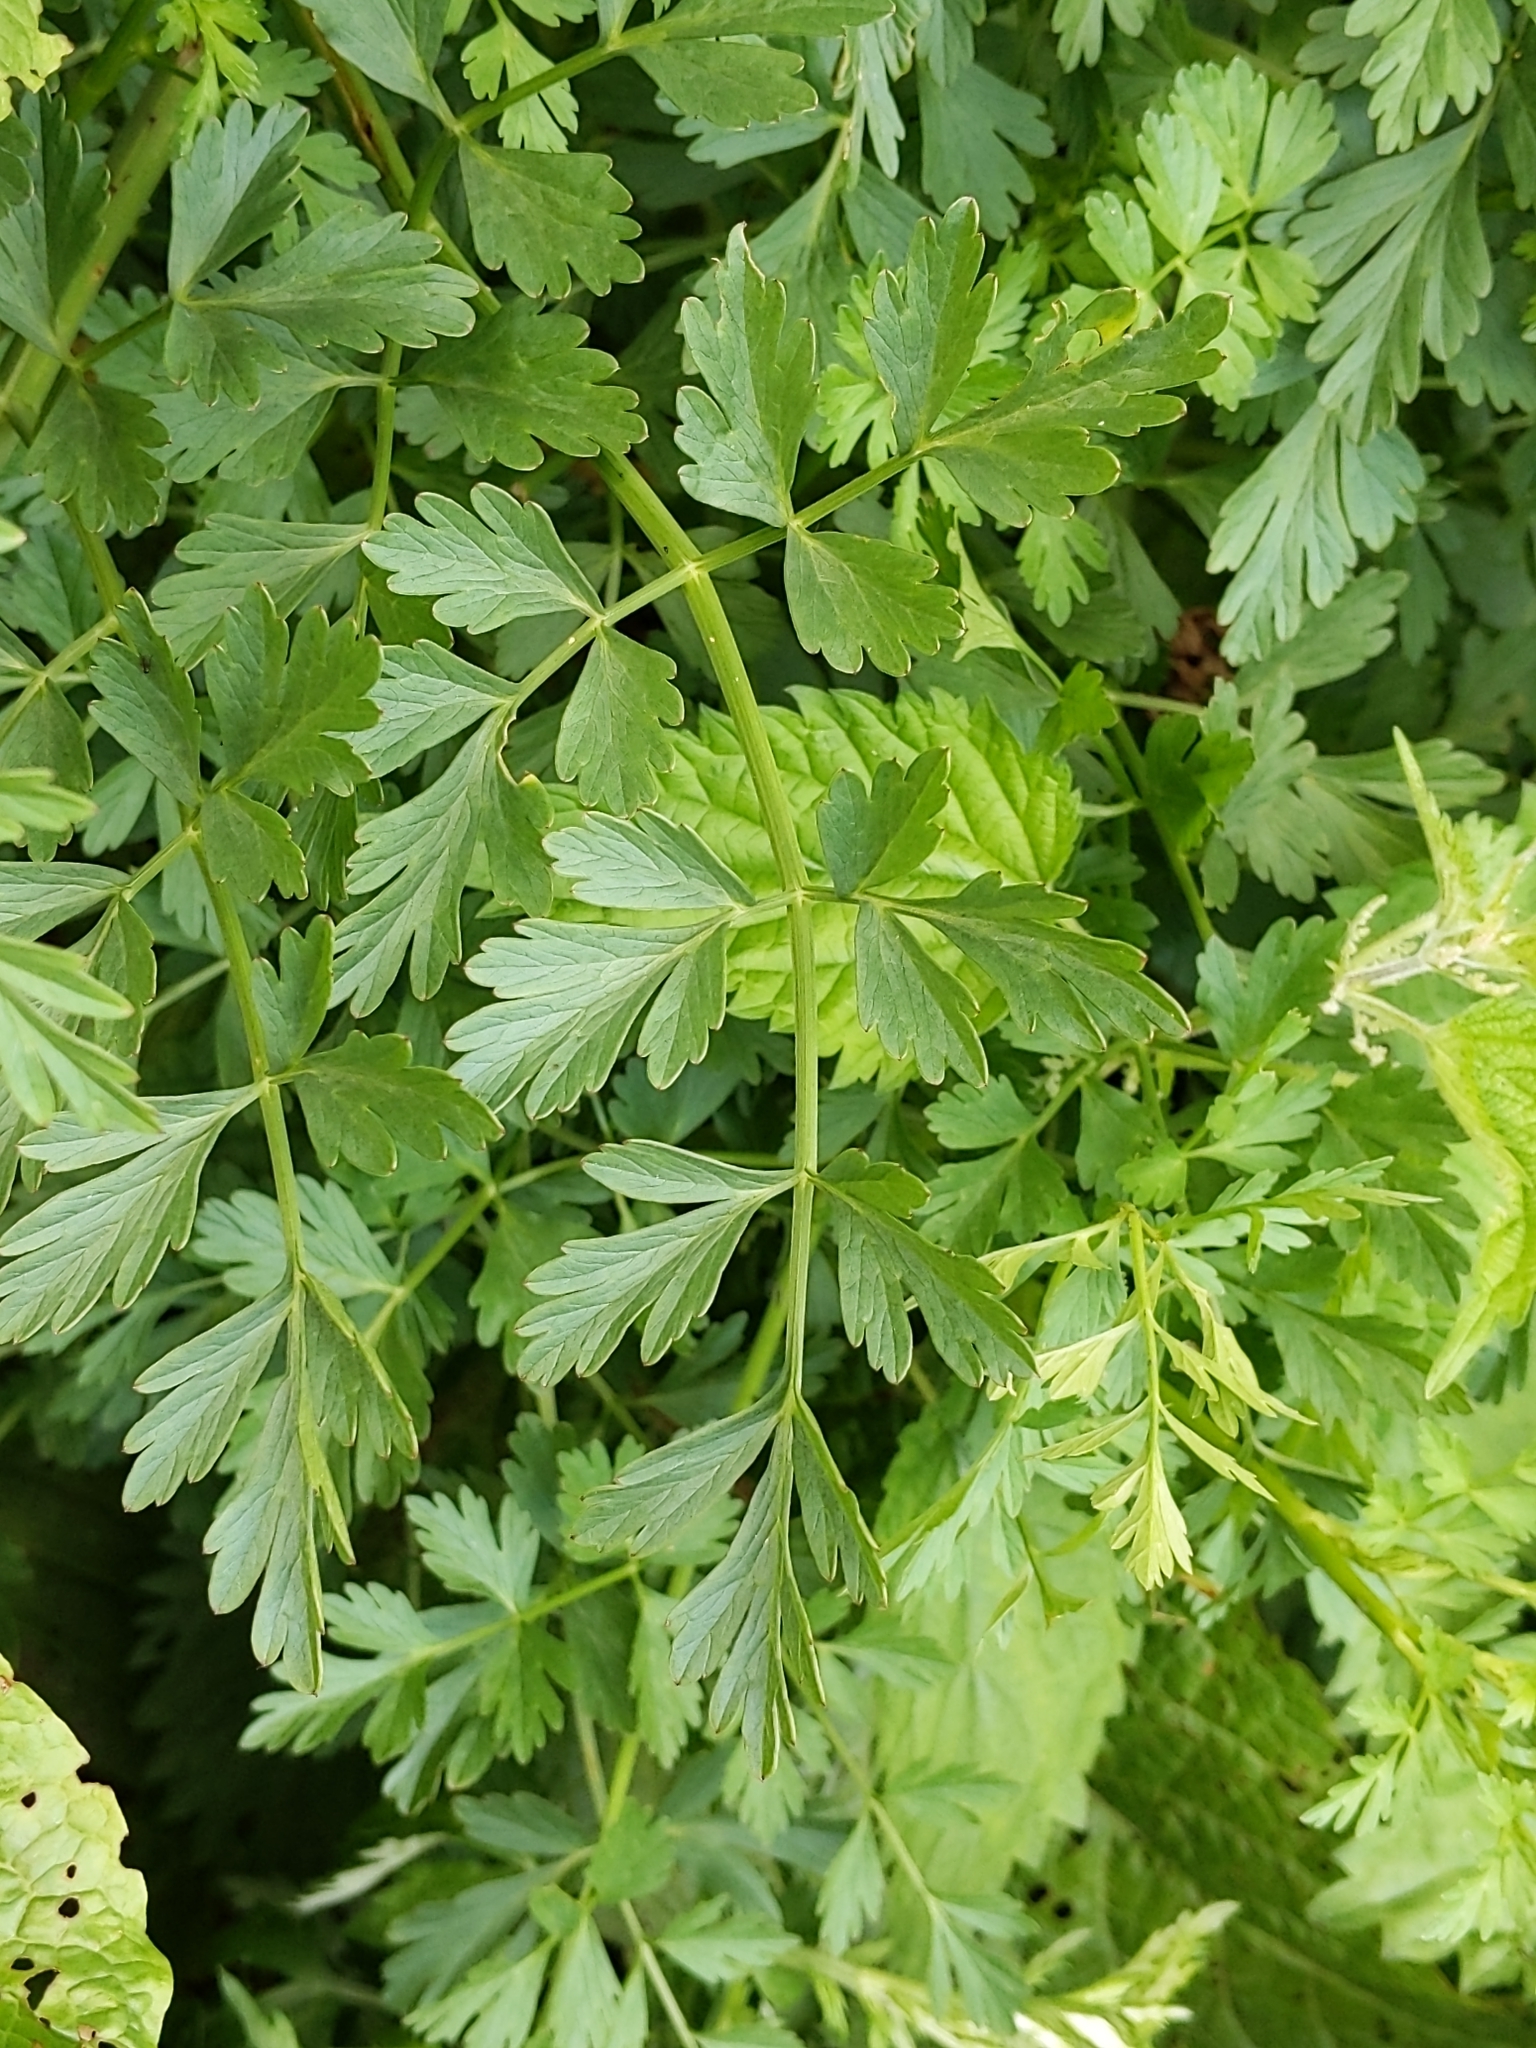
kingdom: Plantae
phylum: Tracheophyta
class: Magnoliopsida
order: Apiales
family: Apiaceae
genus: Oenanthe
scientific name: Oenanthe crocata
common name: Hemlock water-dropwort
